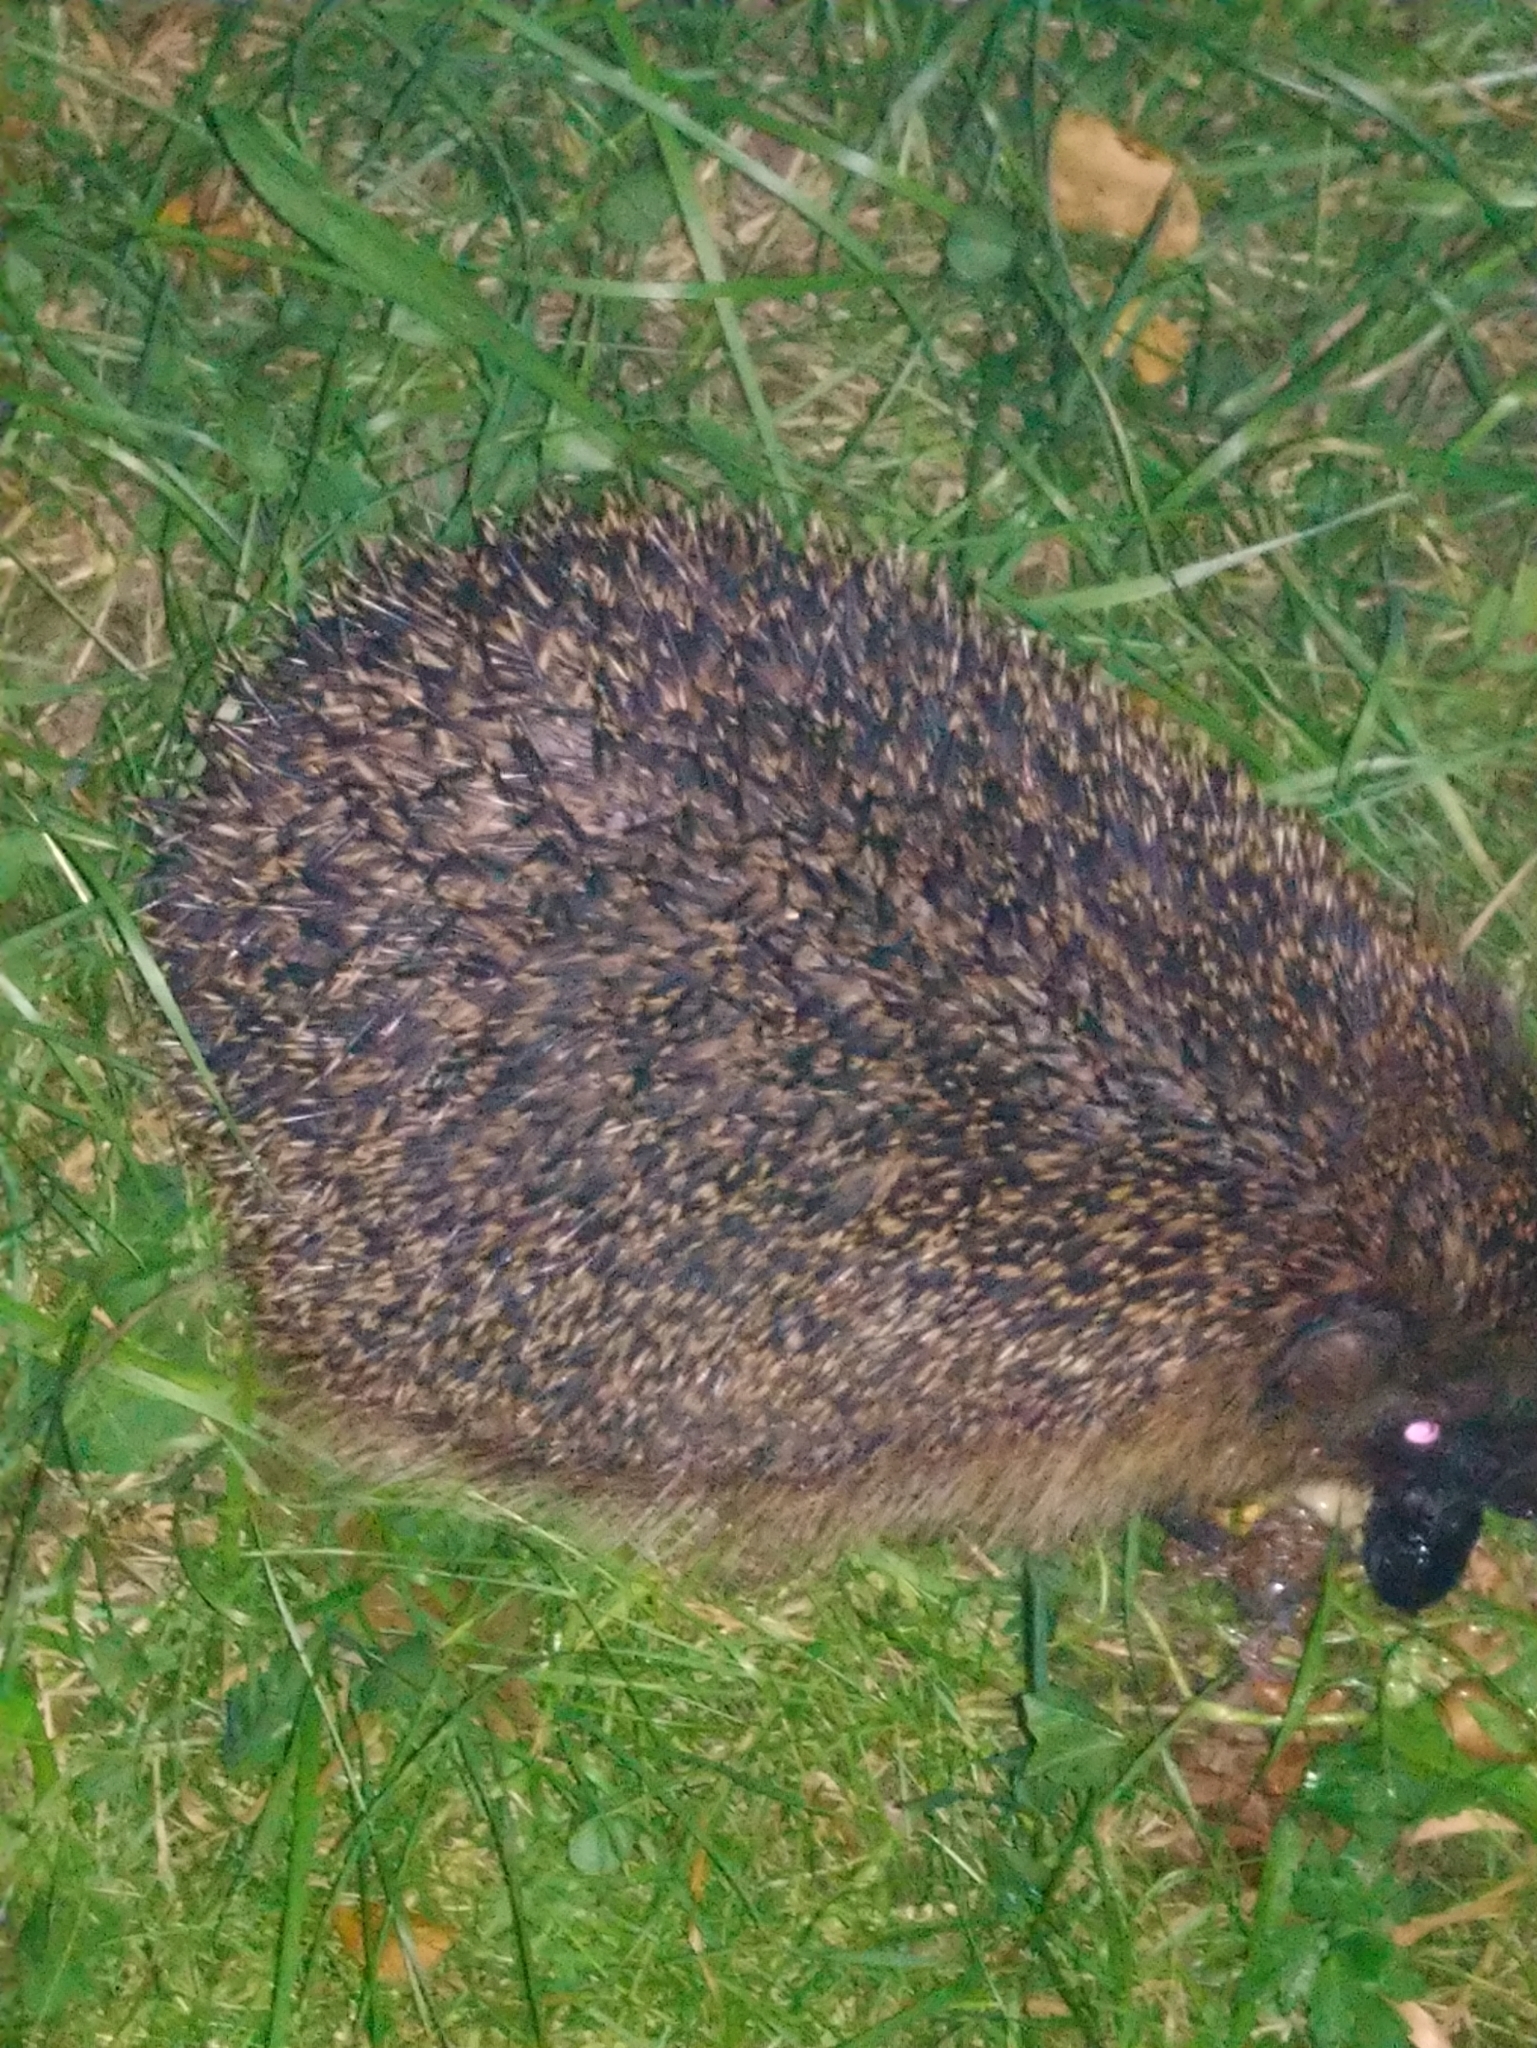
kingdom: Animalia
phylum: Chordata
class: Mammalia
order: Erinaceomorpha
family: Erinaceidae
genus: Erinaceus
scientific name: Erinaceus europaeus
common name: West european hedgehog
